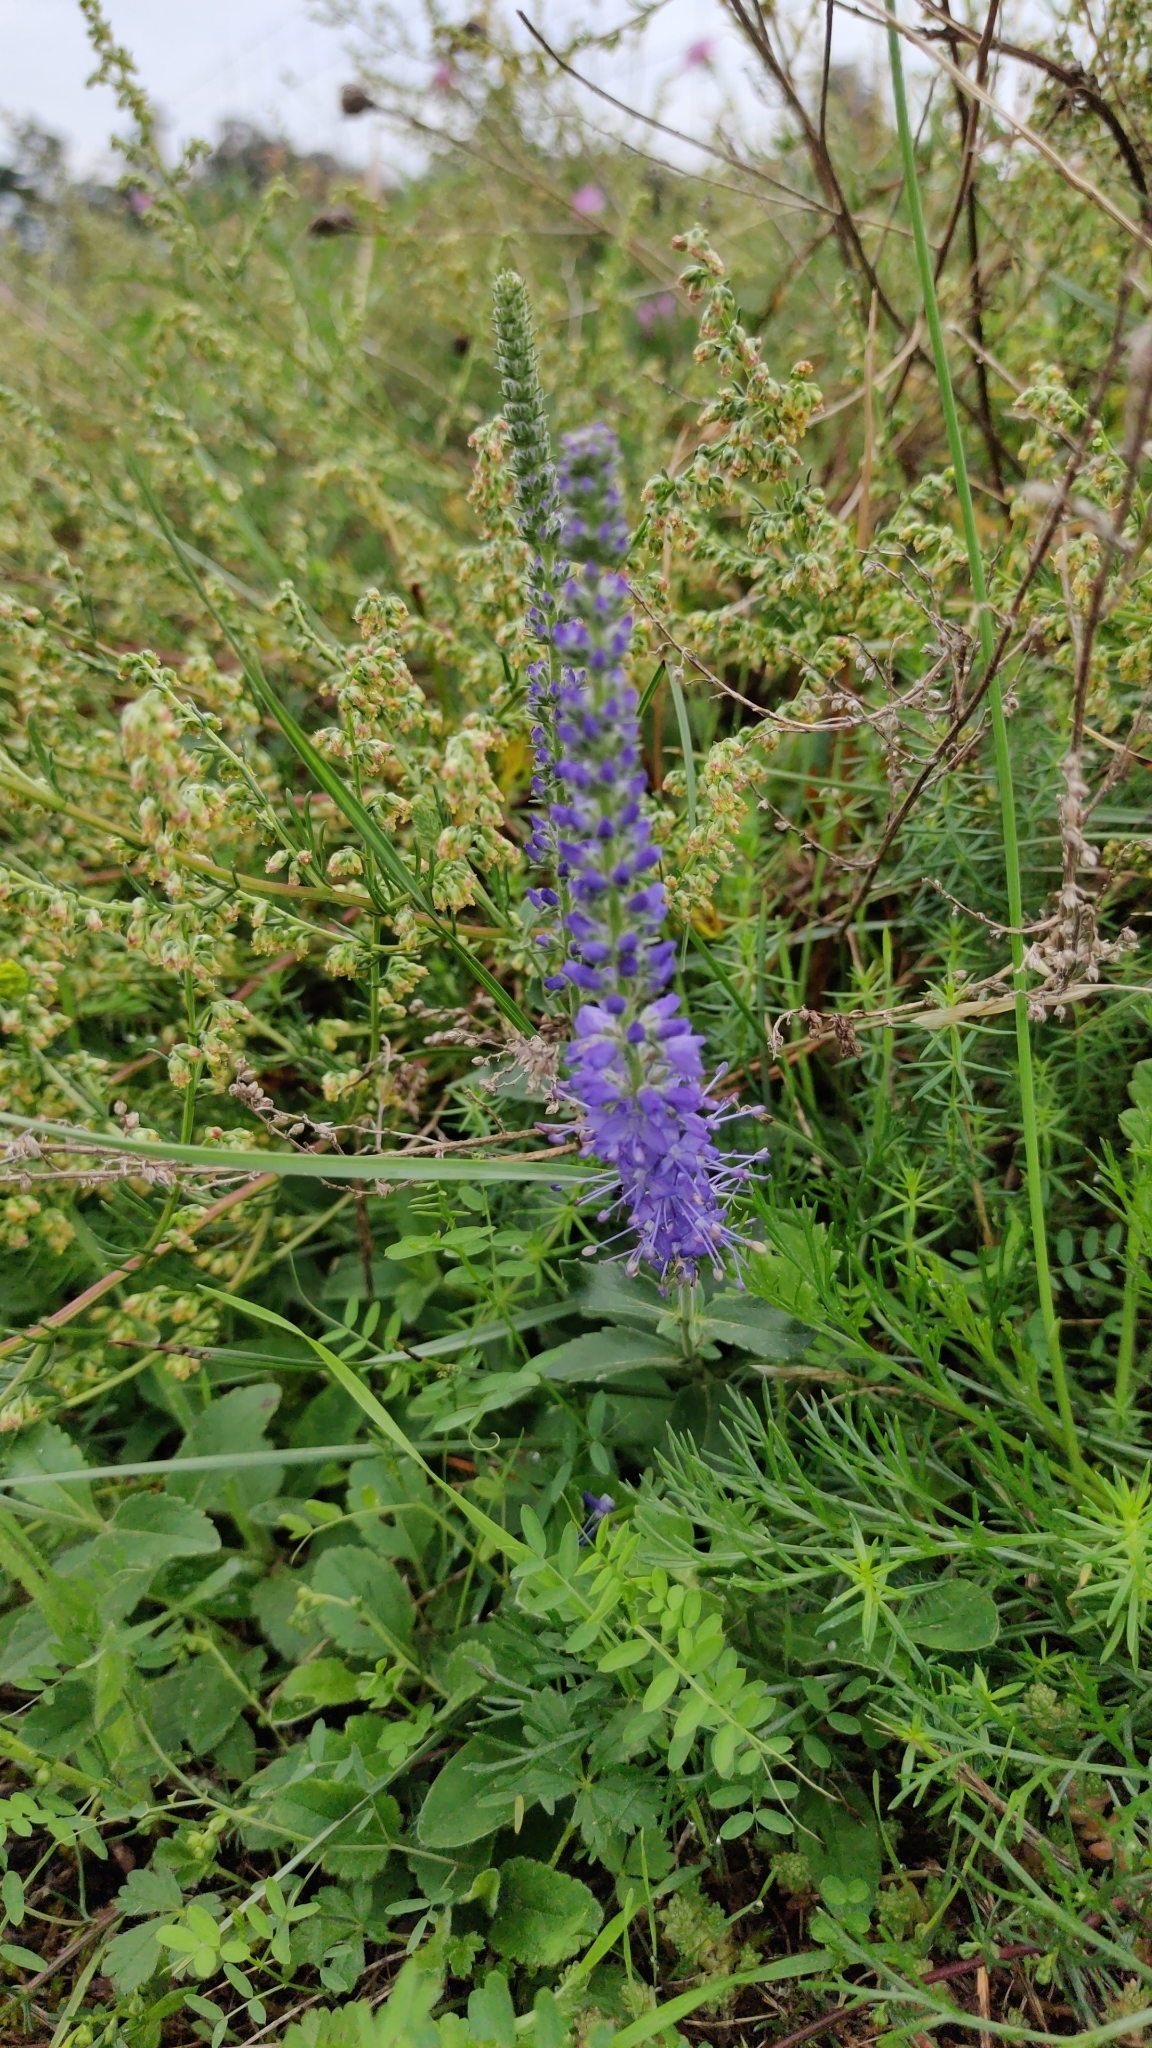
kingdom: Plantae
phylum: Tracheophyta
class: Magnoliopsida
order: Lamiales
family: Plantaginaceae
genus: Veronica
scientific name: Veronica spicata
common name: Spiked speedwell
